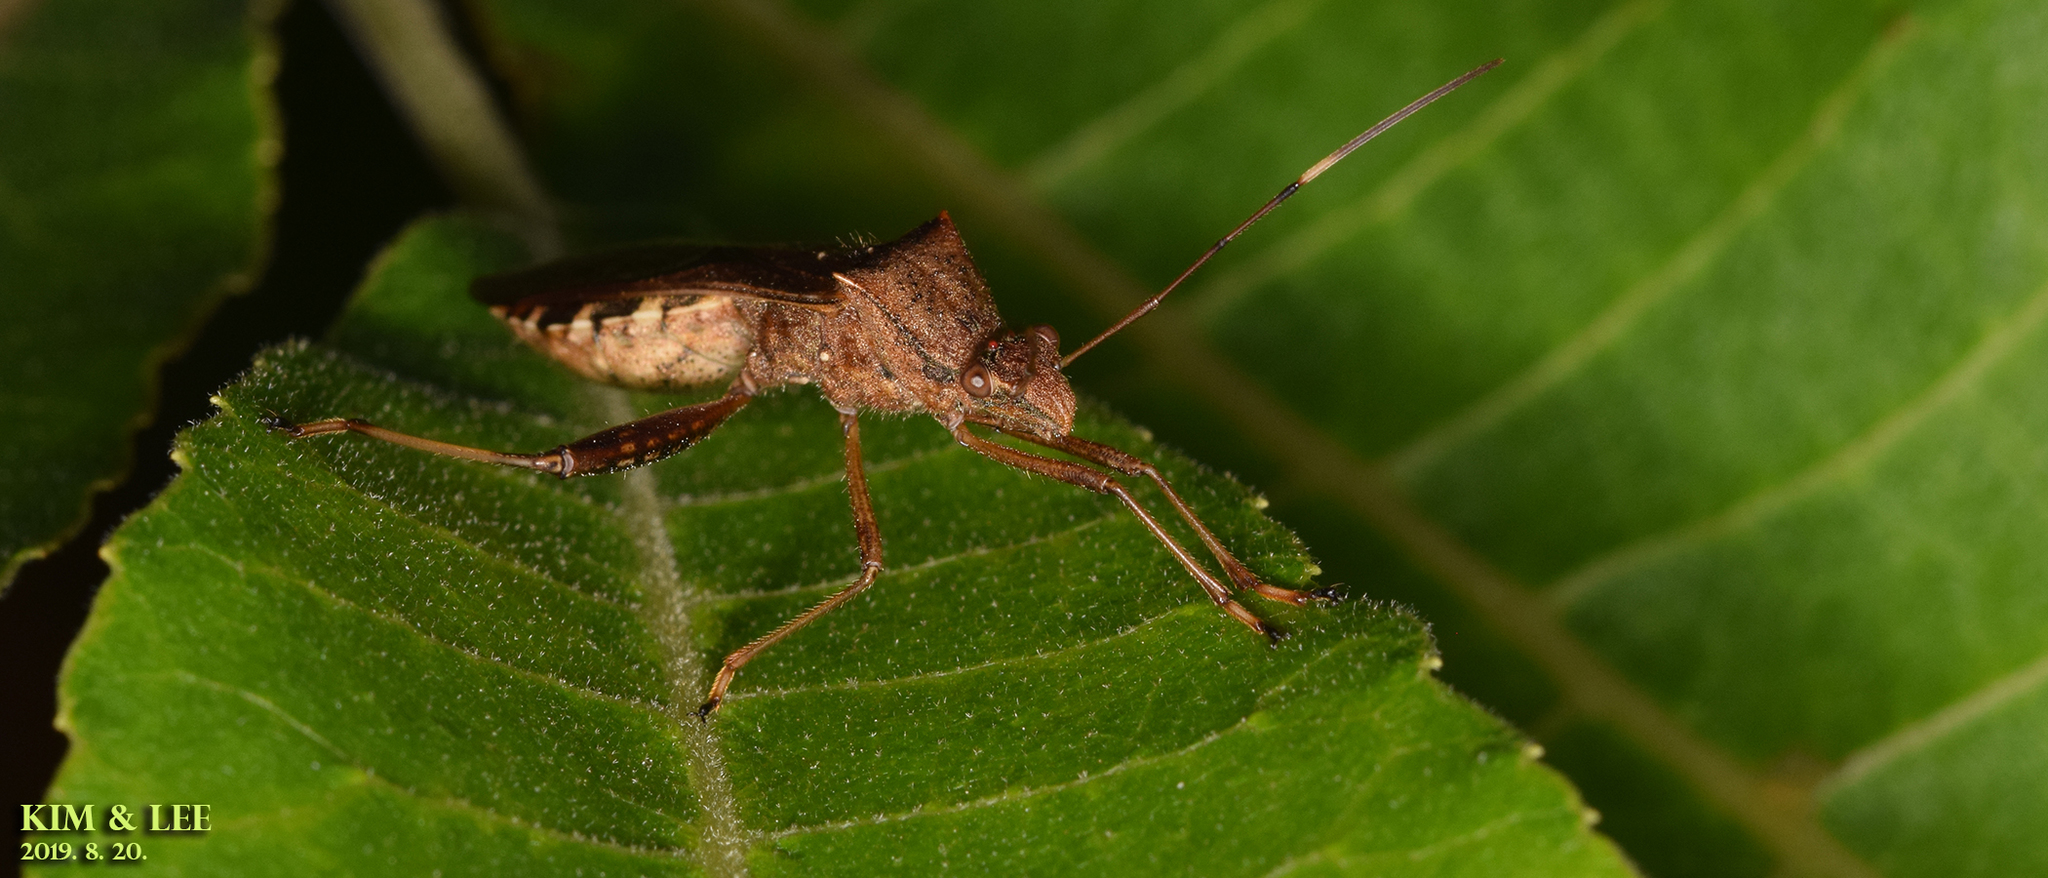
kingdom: Animalia
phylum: Arthropoda
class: Insecta
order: Hemiptera
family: Alydidae
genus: Riptortus
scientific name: Riptortus pedestris
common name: Bean bug
